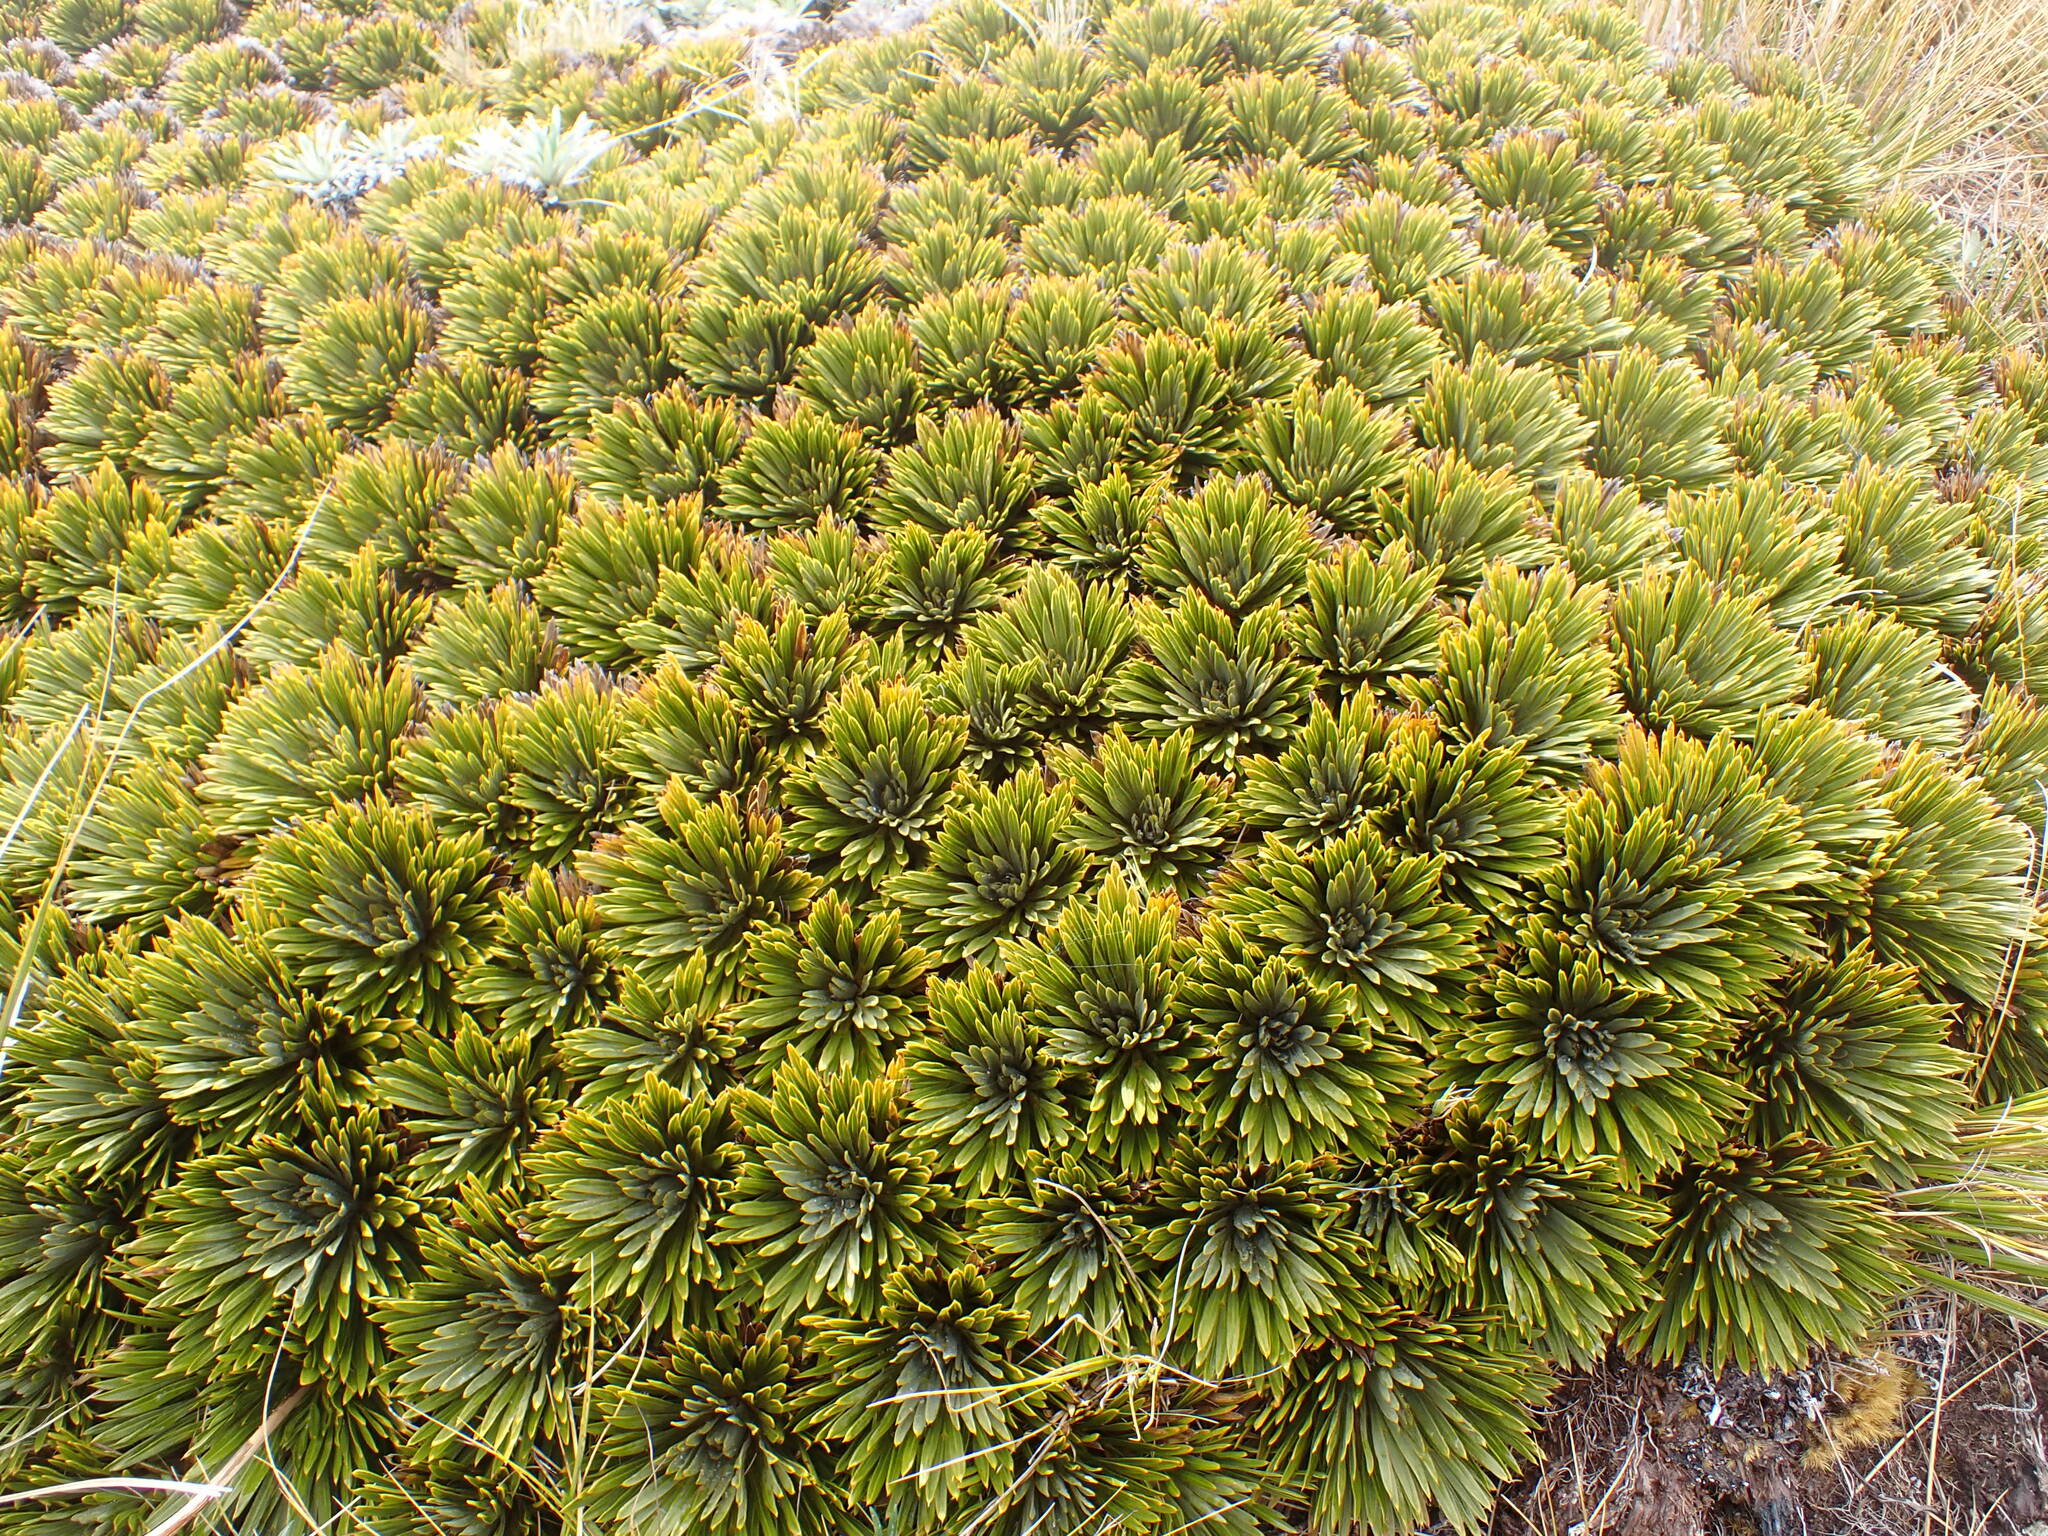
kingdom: Plantae
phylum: Tracheophyta
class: Magnoliopsida
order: Apiales
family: Apiaceae
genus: Aciphylla
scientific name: Aciphylla crosby-smithii
